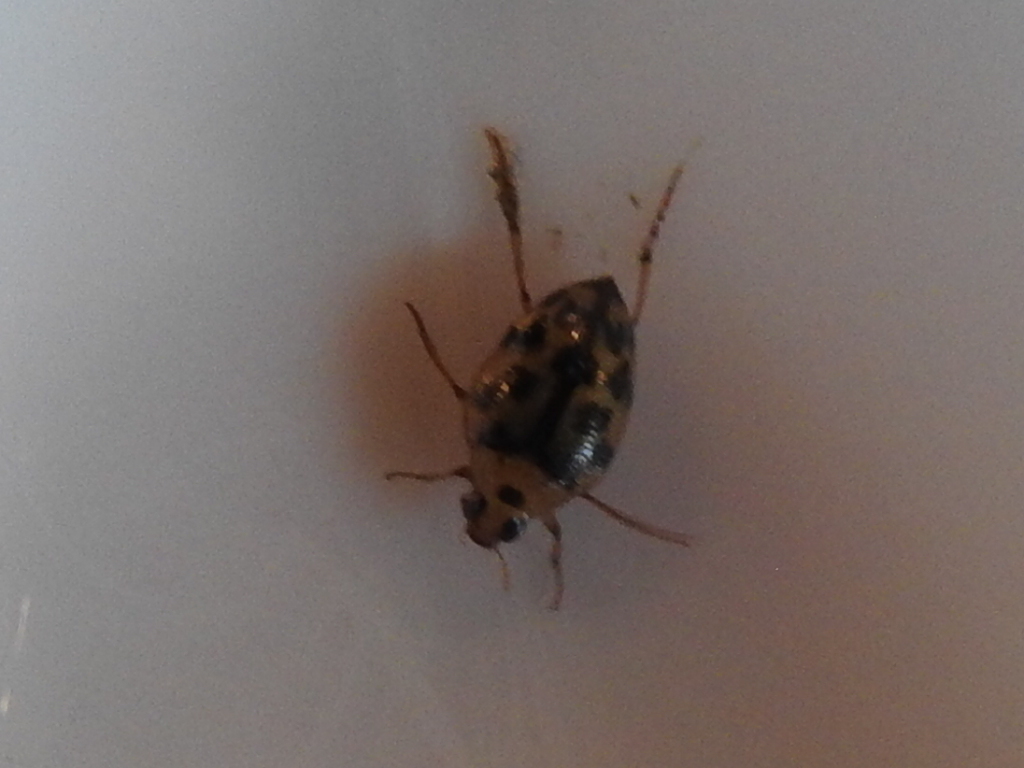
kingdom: Animalia
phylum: Arthropoda
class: Insecta
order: Coleoptera
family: Haliplidae
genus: Haliplus
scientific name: Haliplus
